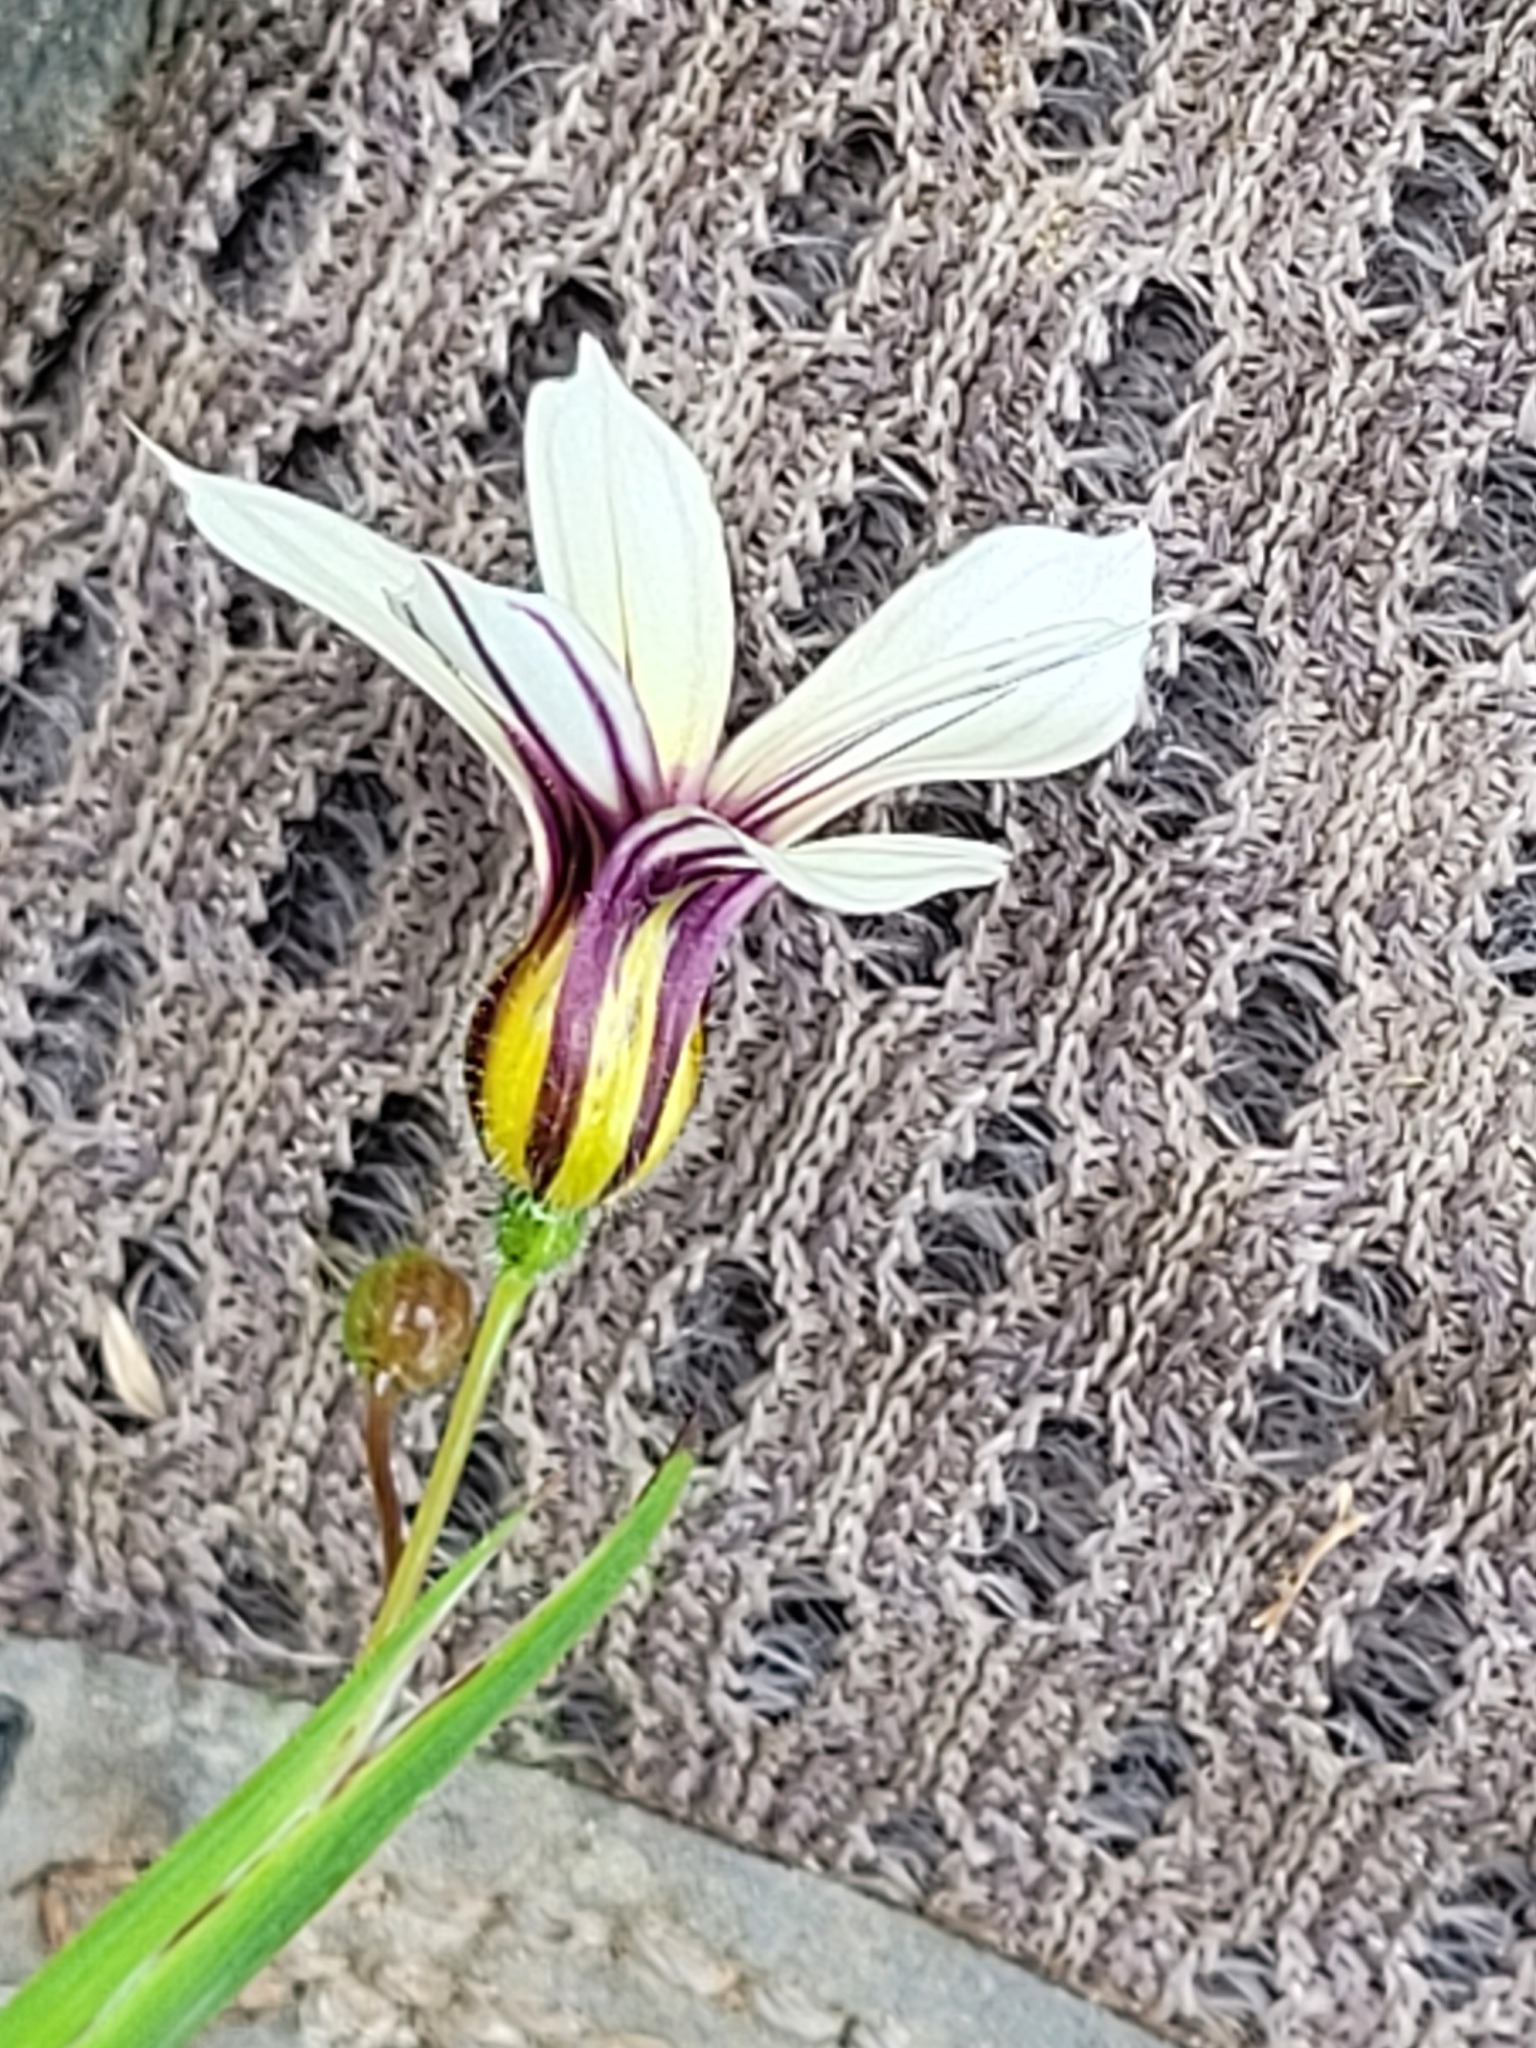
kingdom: Plantae
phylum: Tracheophyta
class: Liliopsida
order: Asparagales
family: Iridaceae
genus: Sisyrinchium
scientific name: Sisyrinchium micranthum
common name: Bermuda pigroot
